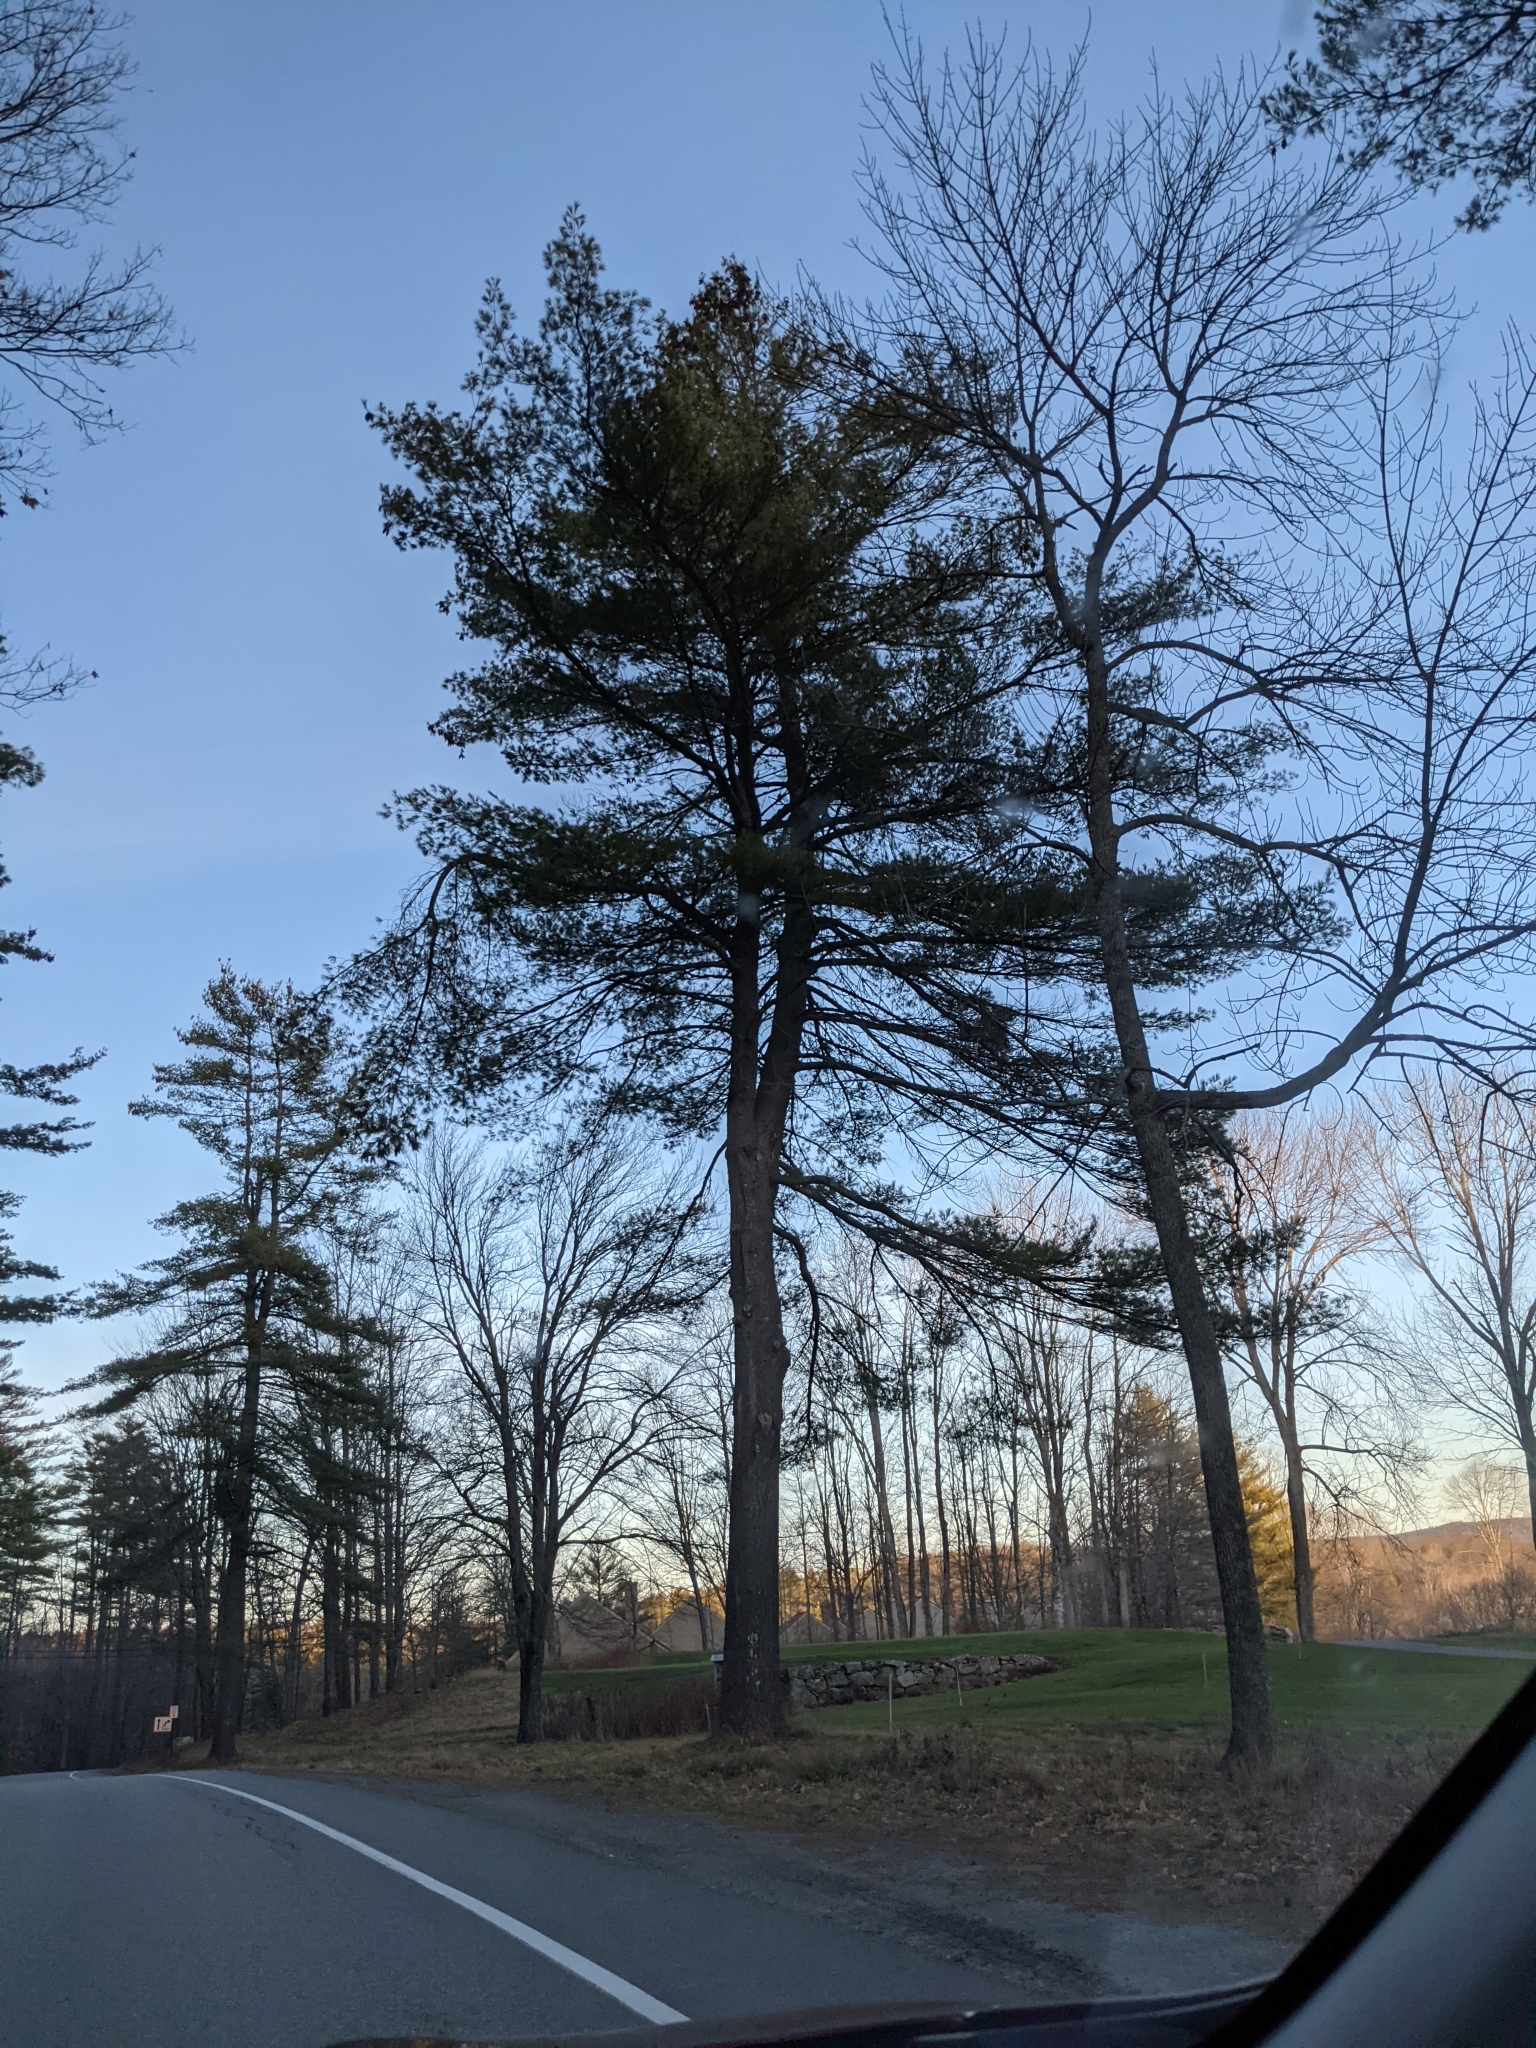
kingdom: Plantae
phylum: Tracheophyta
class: Pinopsida
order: Pinales
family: Pinaceae
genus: Pinus
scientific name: Pinus strobus
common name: Weymouth pine
